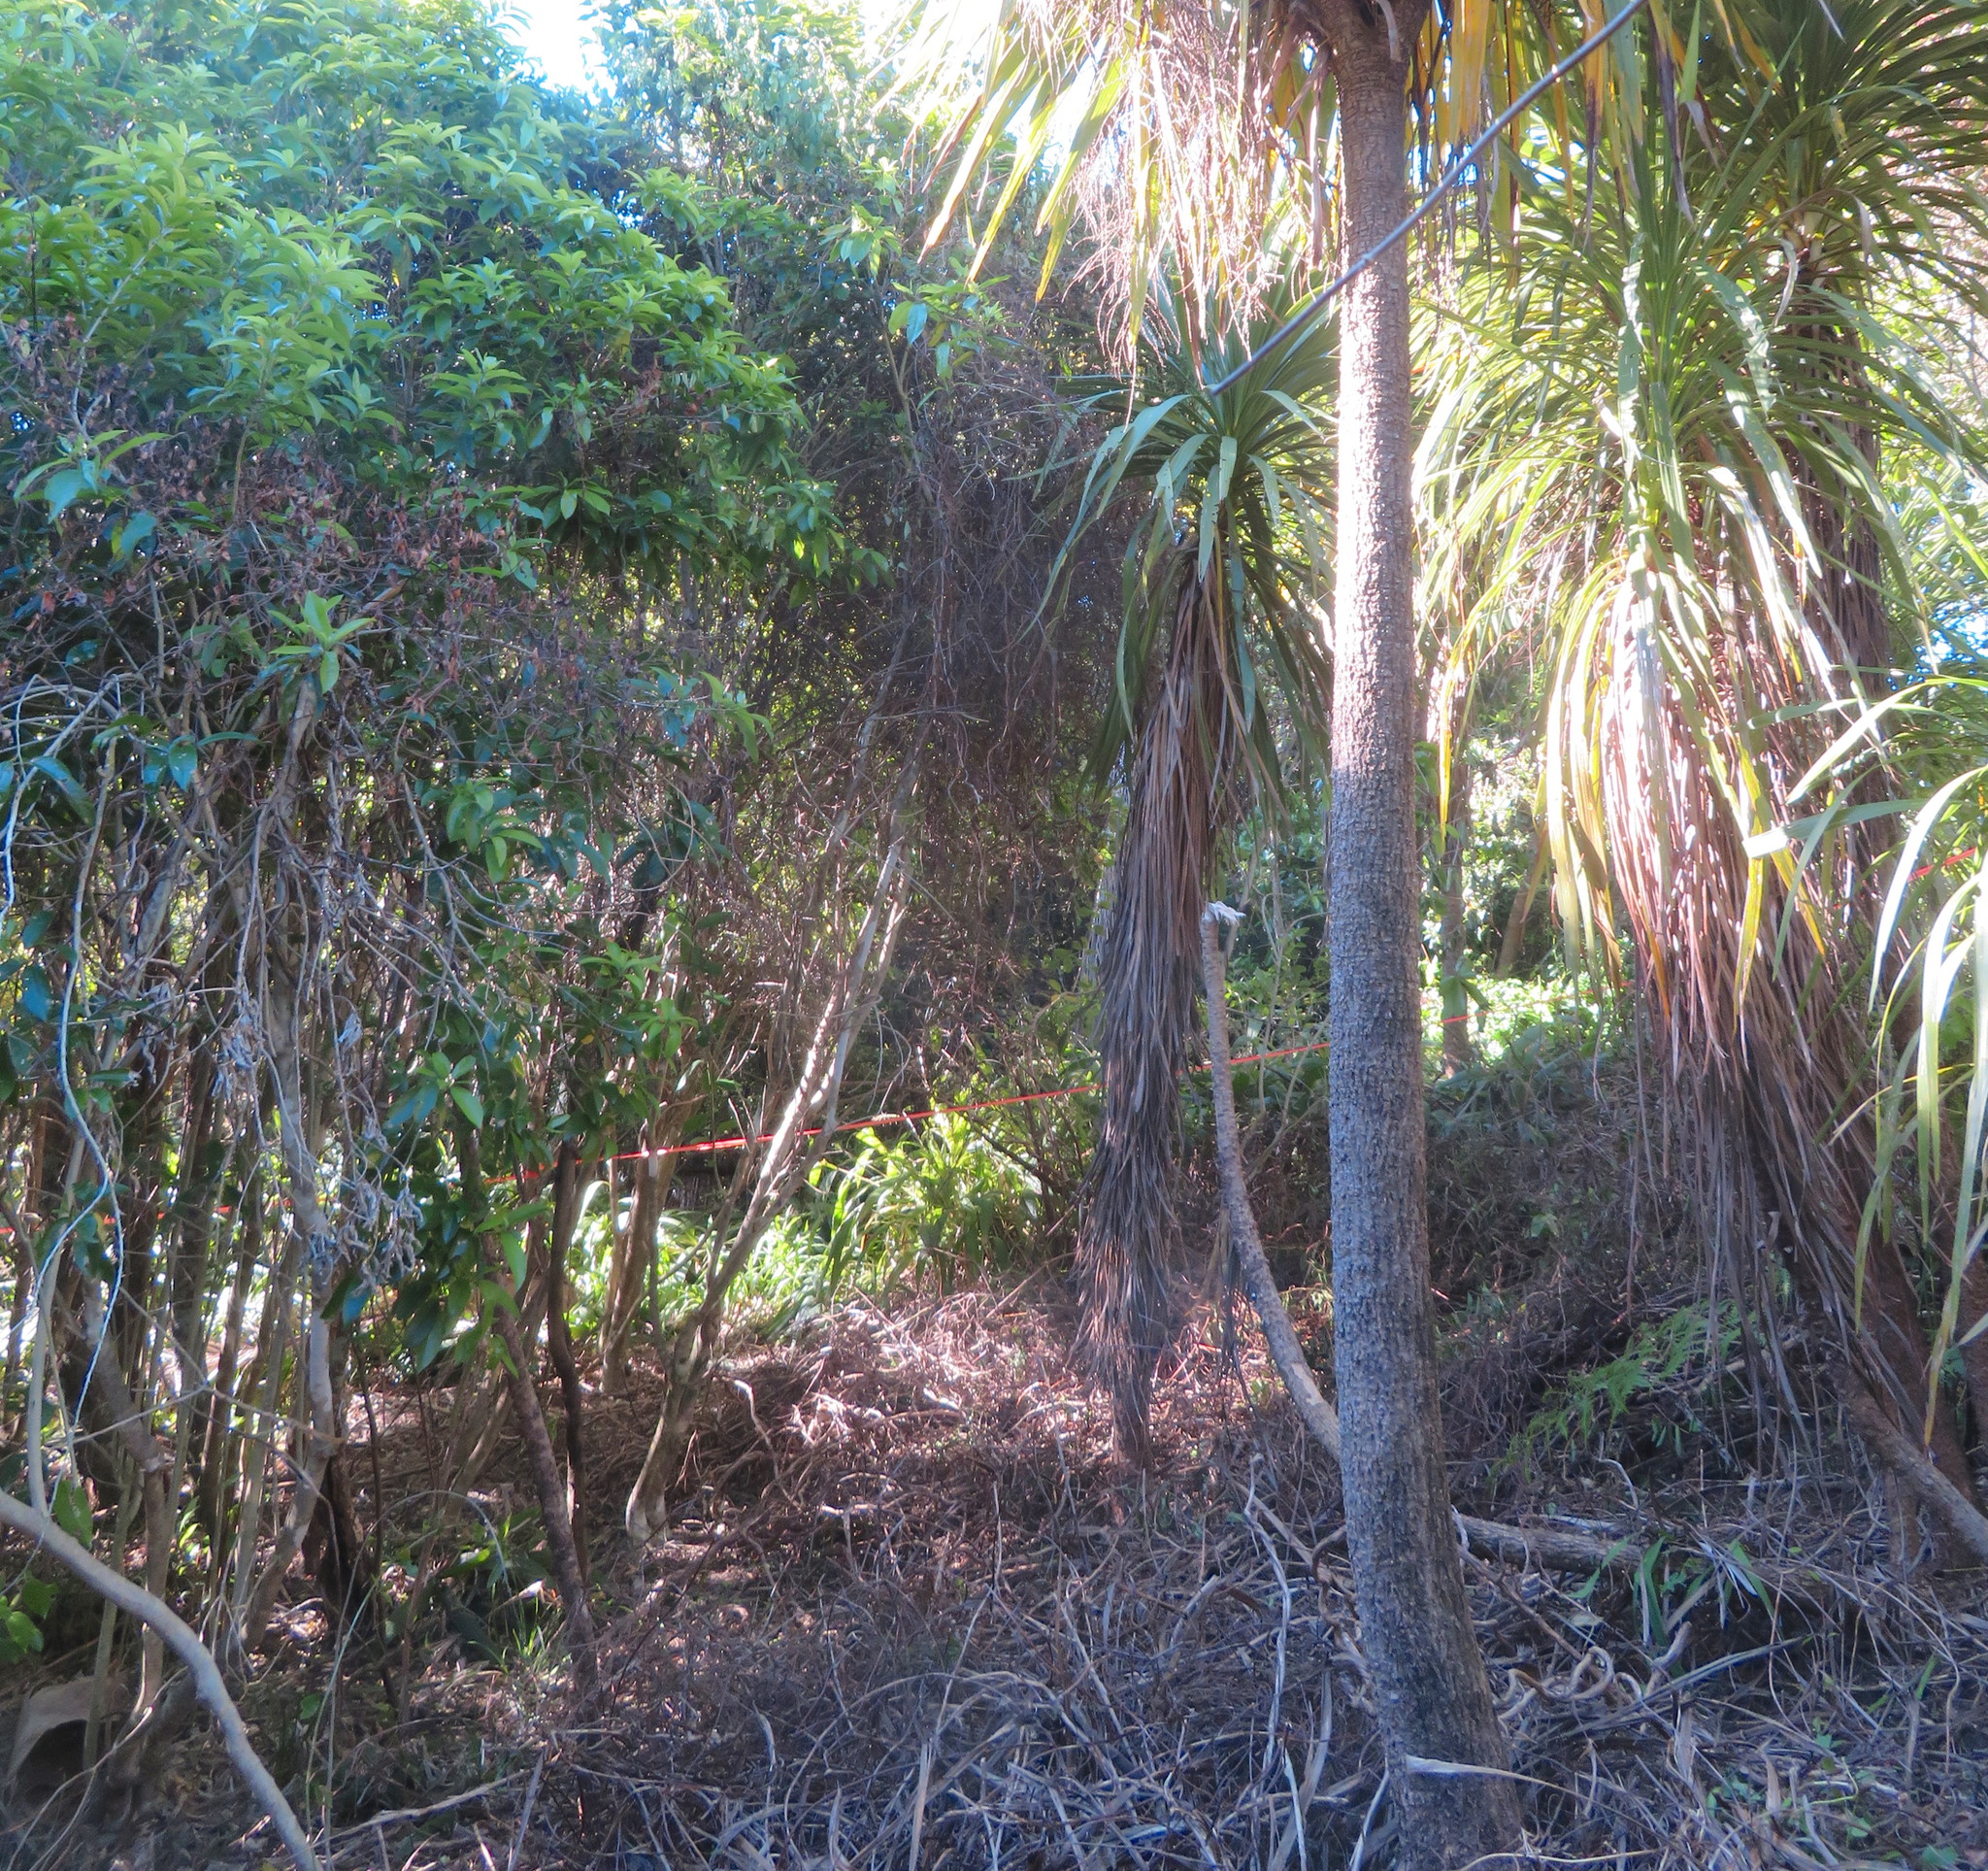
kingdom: Plantae
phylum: Tracheophyta
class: Magnoliopsida
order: Malpighiales
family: Violaceae
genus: Melicytus
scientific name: Melicytus ramiflorus
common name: Mahoe
